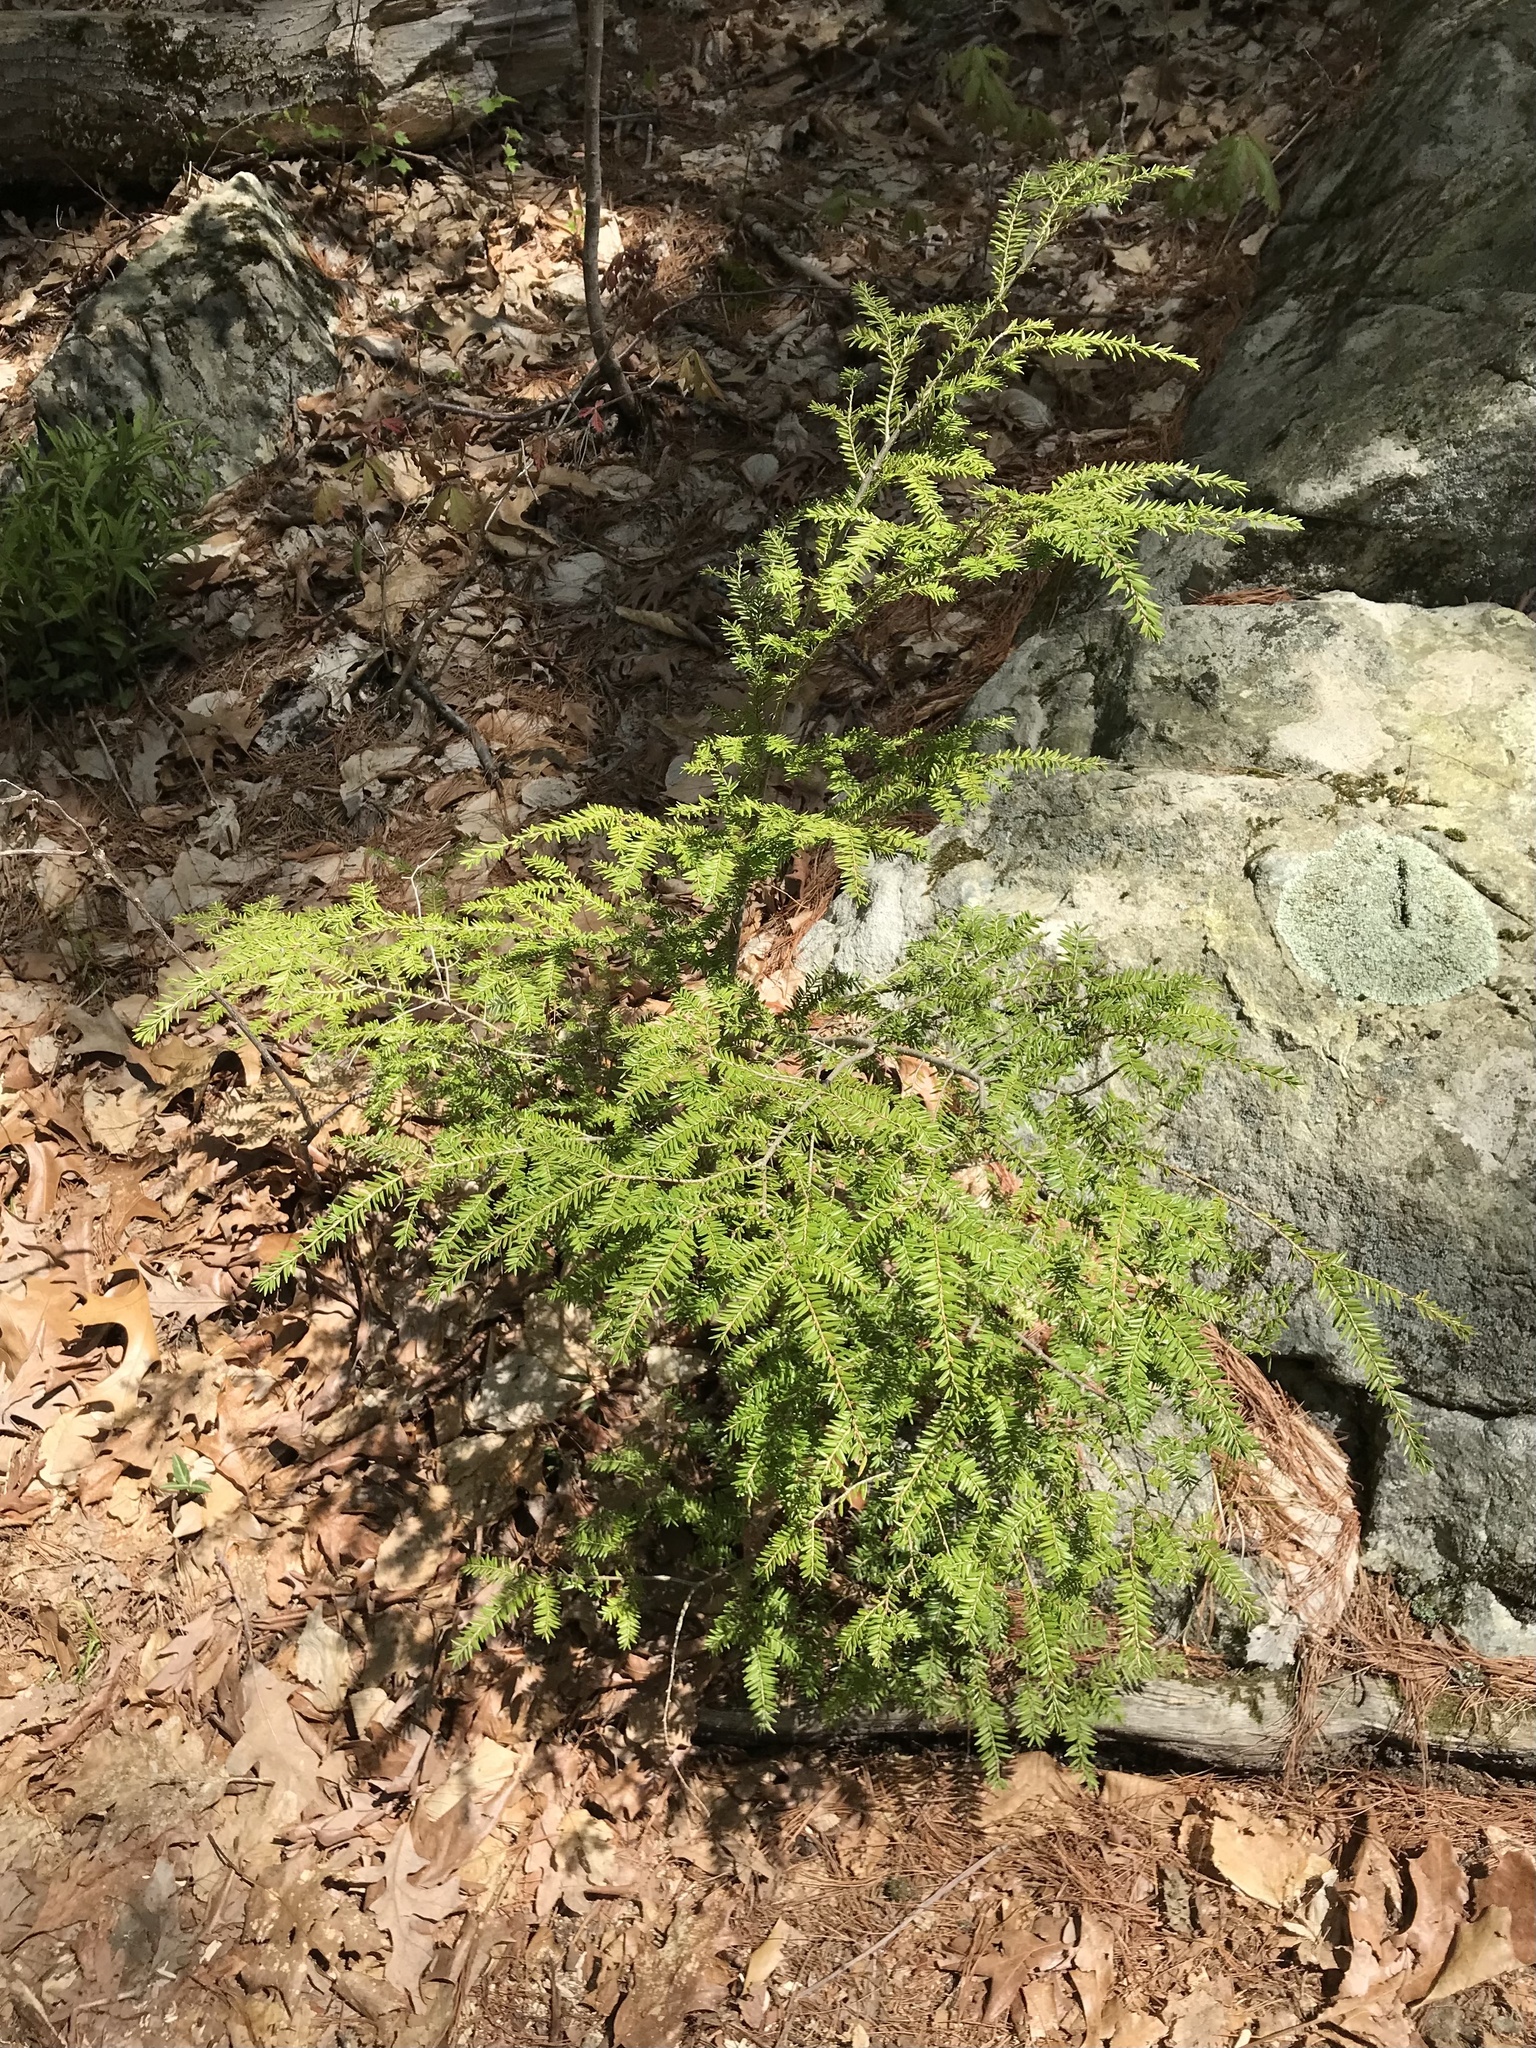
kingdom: Plantae
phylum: Tracheophyta
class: Pinopsida
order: Pinales
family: Pinaceae
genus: Tsuga
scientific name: Tsuga canadensis
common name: Eastern hemlock
